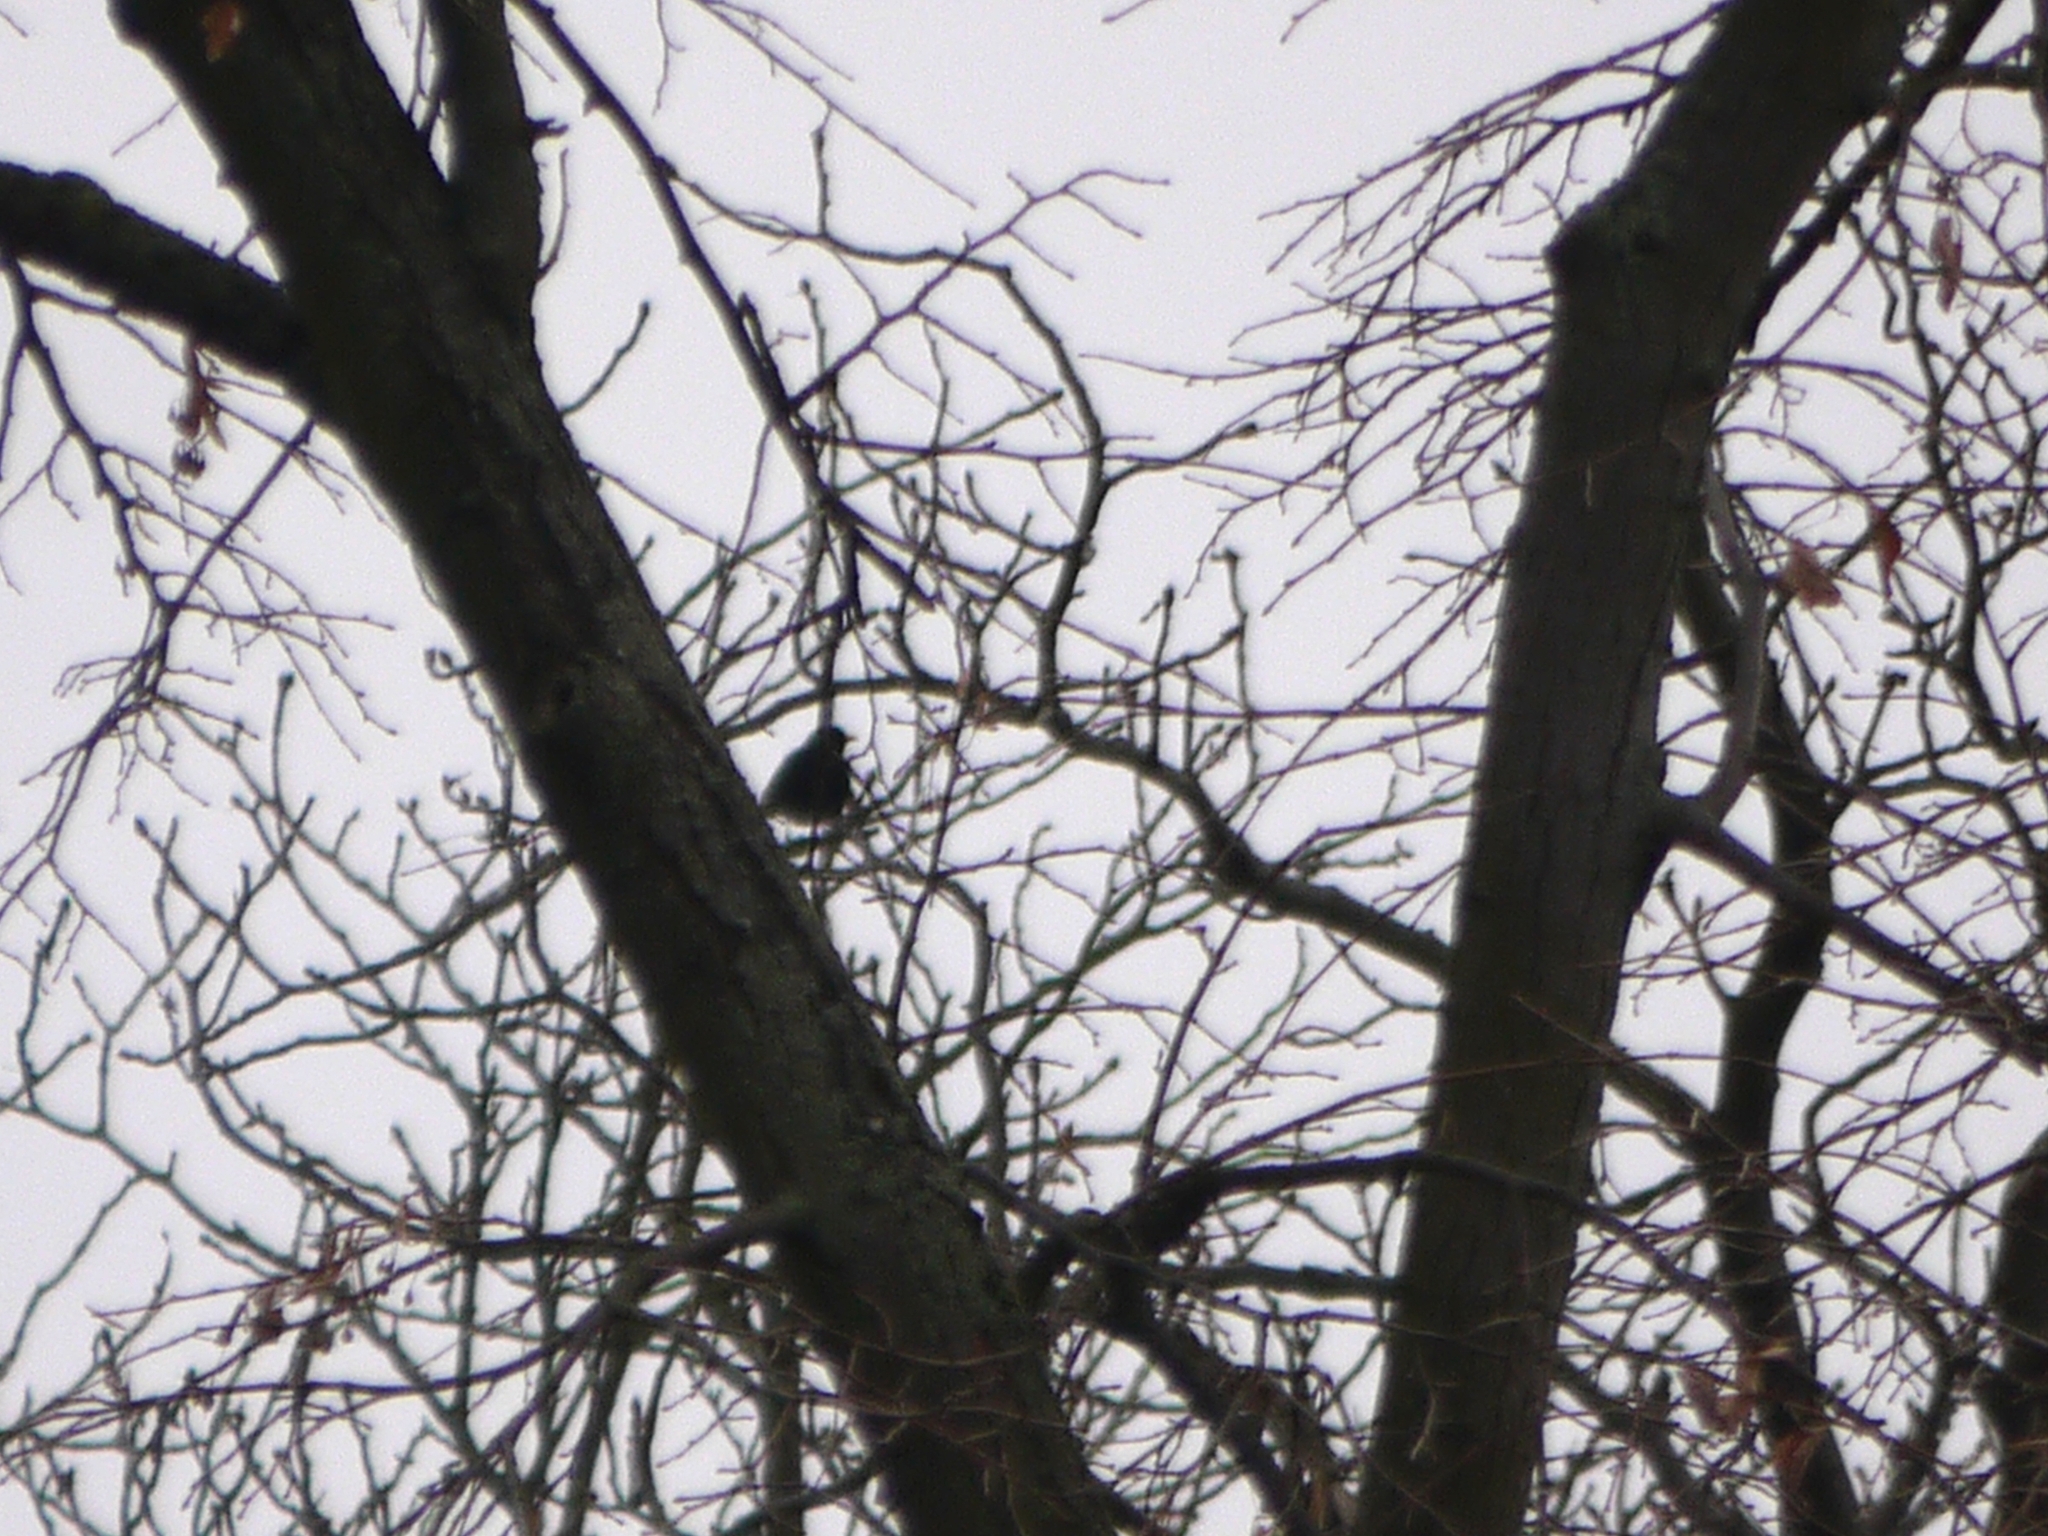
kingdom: Animalia
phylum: Chordata
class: Aves
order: Passeriformes
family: Turdidae
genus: Turdus
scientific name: Turdus merula
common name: Common blackbird
